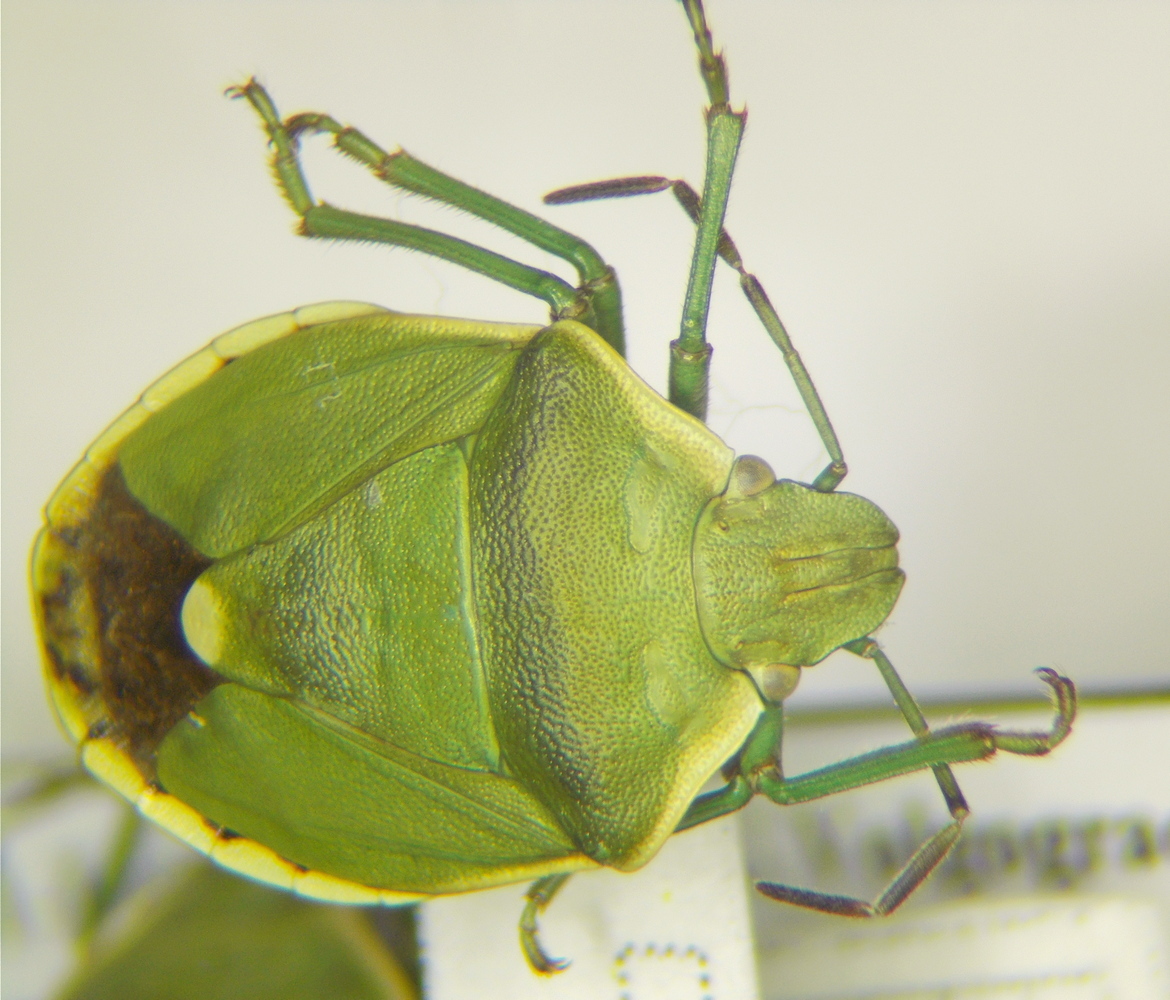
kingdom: Animalia
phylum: Arthropoda
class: Insecta
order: Hemiptera
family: Pentatomidae
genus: Chlorochroa
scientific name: Chlorochroa juniperina
